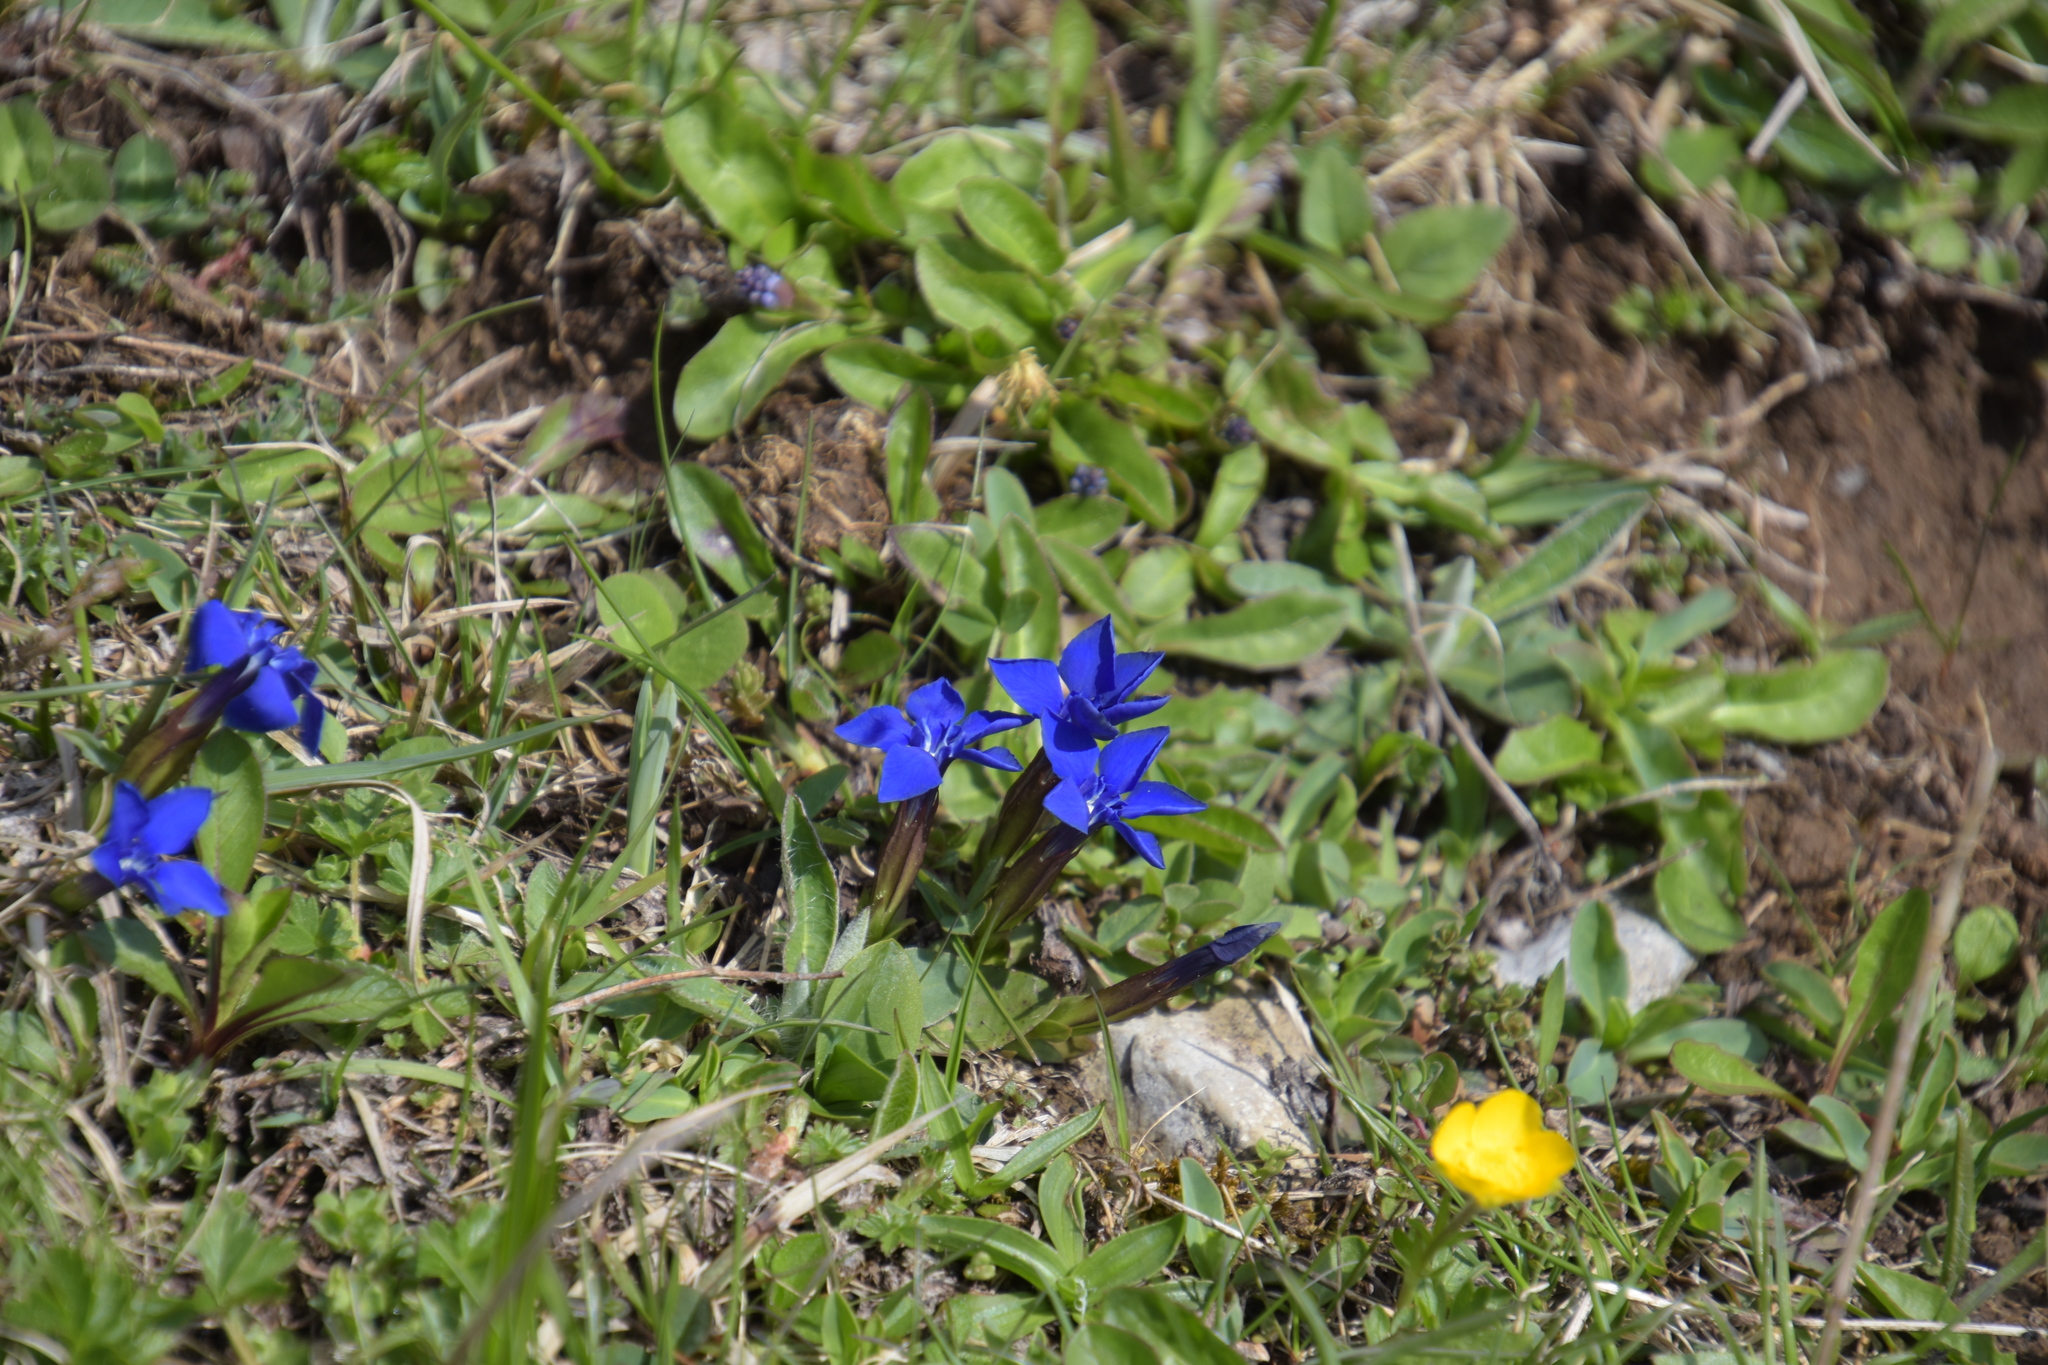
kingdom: Plantae
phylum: Tracheophyta
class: Magnoliopsida
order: Gentianales
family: Gentianaceae
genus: Gentiana
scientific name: Gentiana verna
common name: Spring gentian
